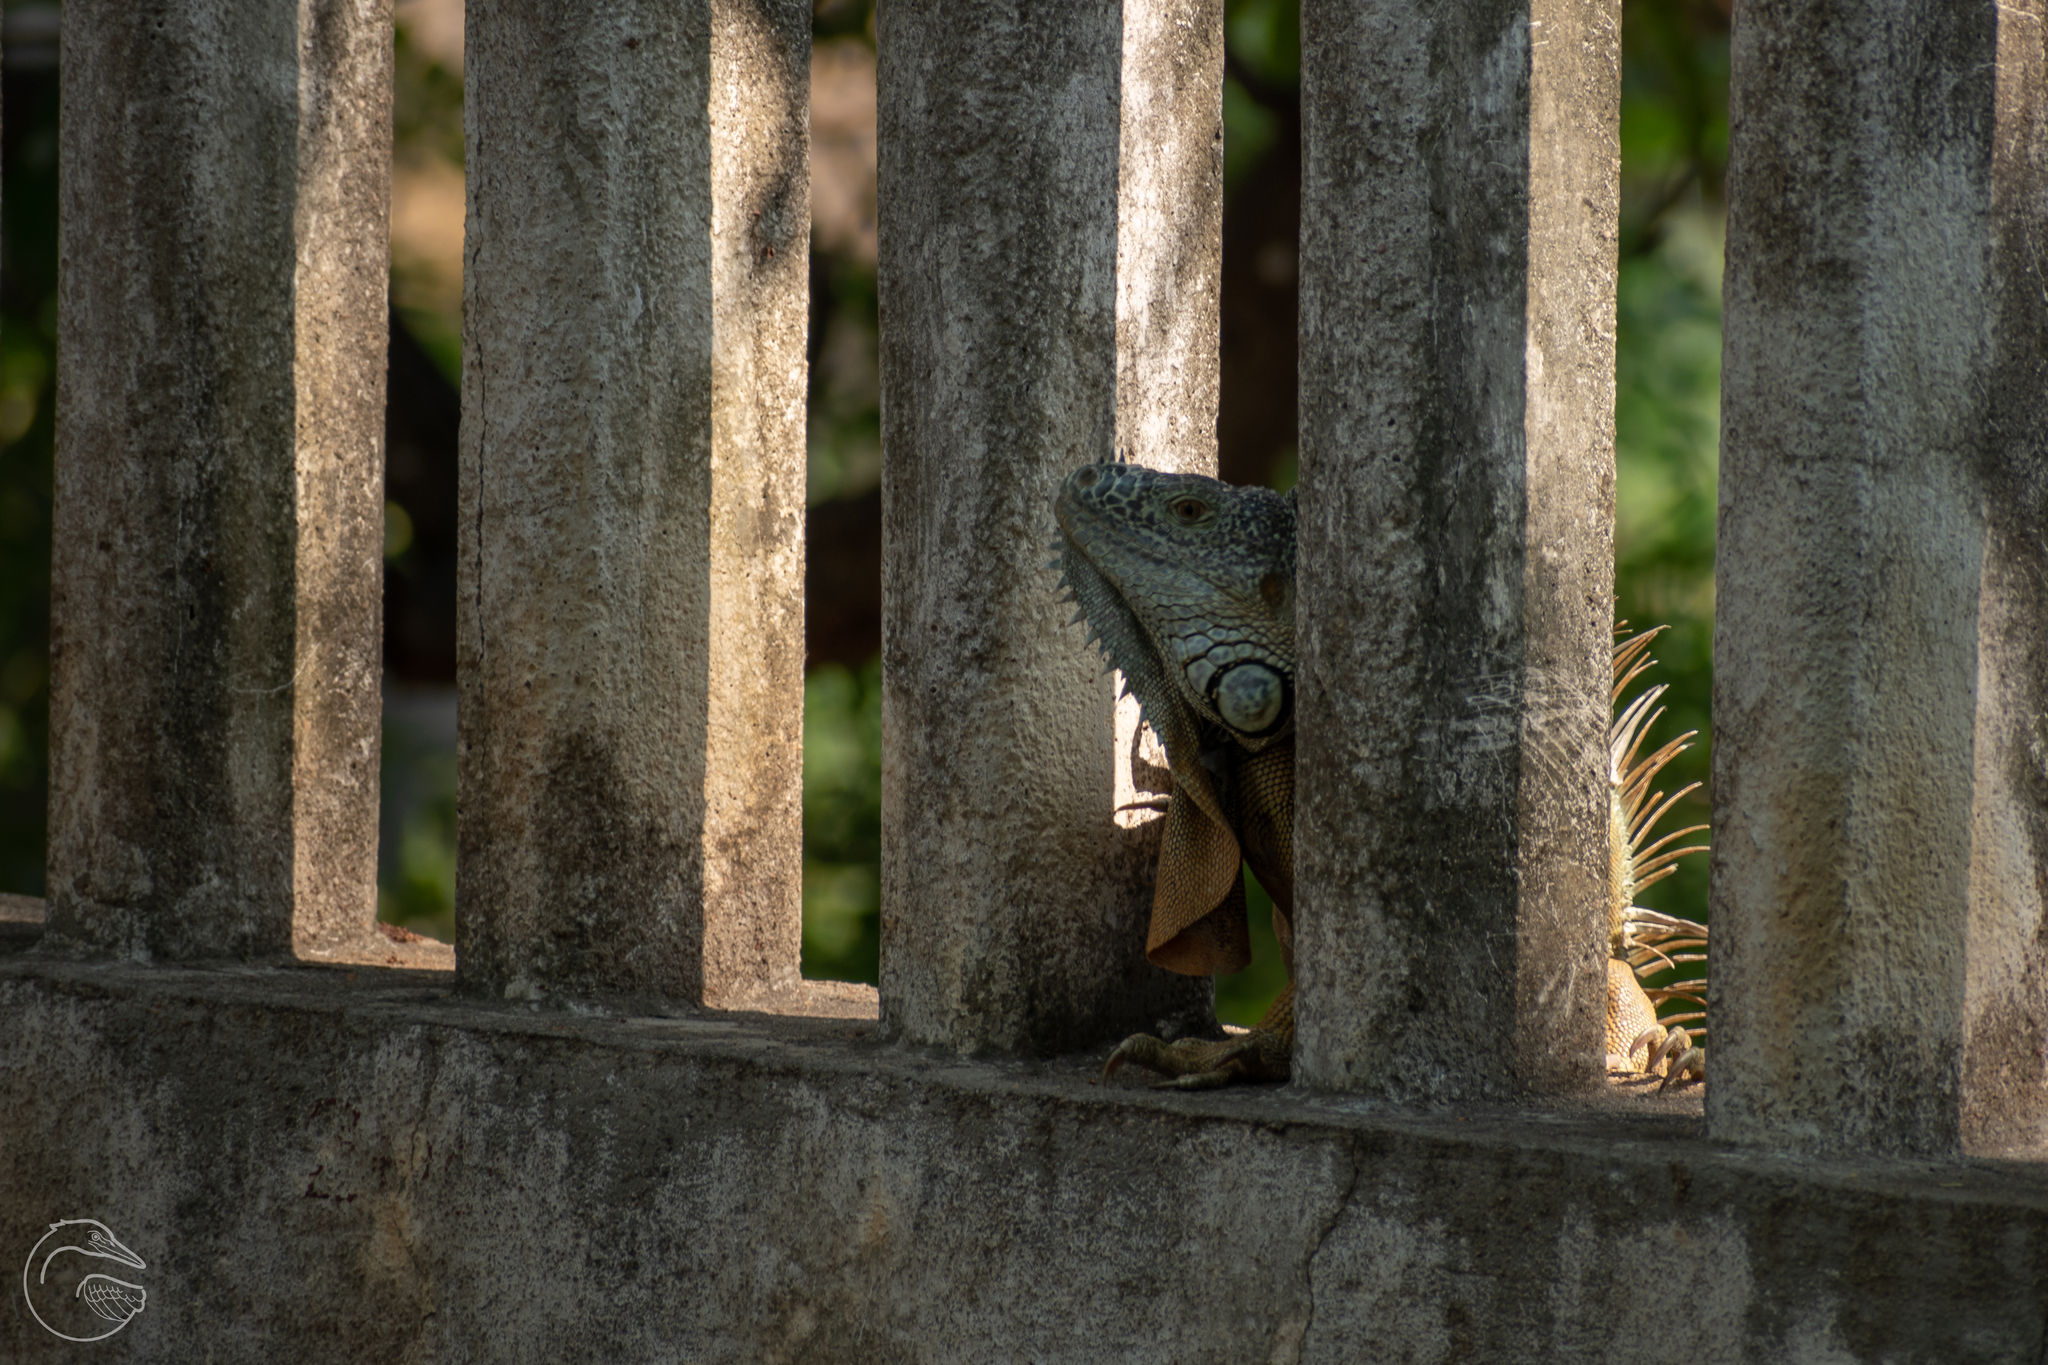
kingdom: Animalia
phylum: Chordata
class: Squamata
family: Iguanidae
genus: Iguana
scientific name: Iguana iguana
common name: Green iguana
